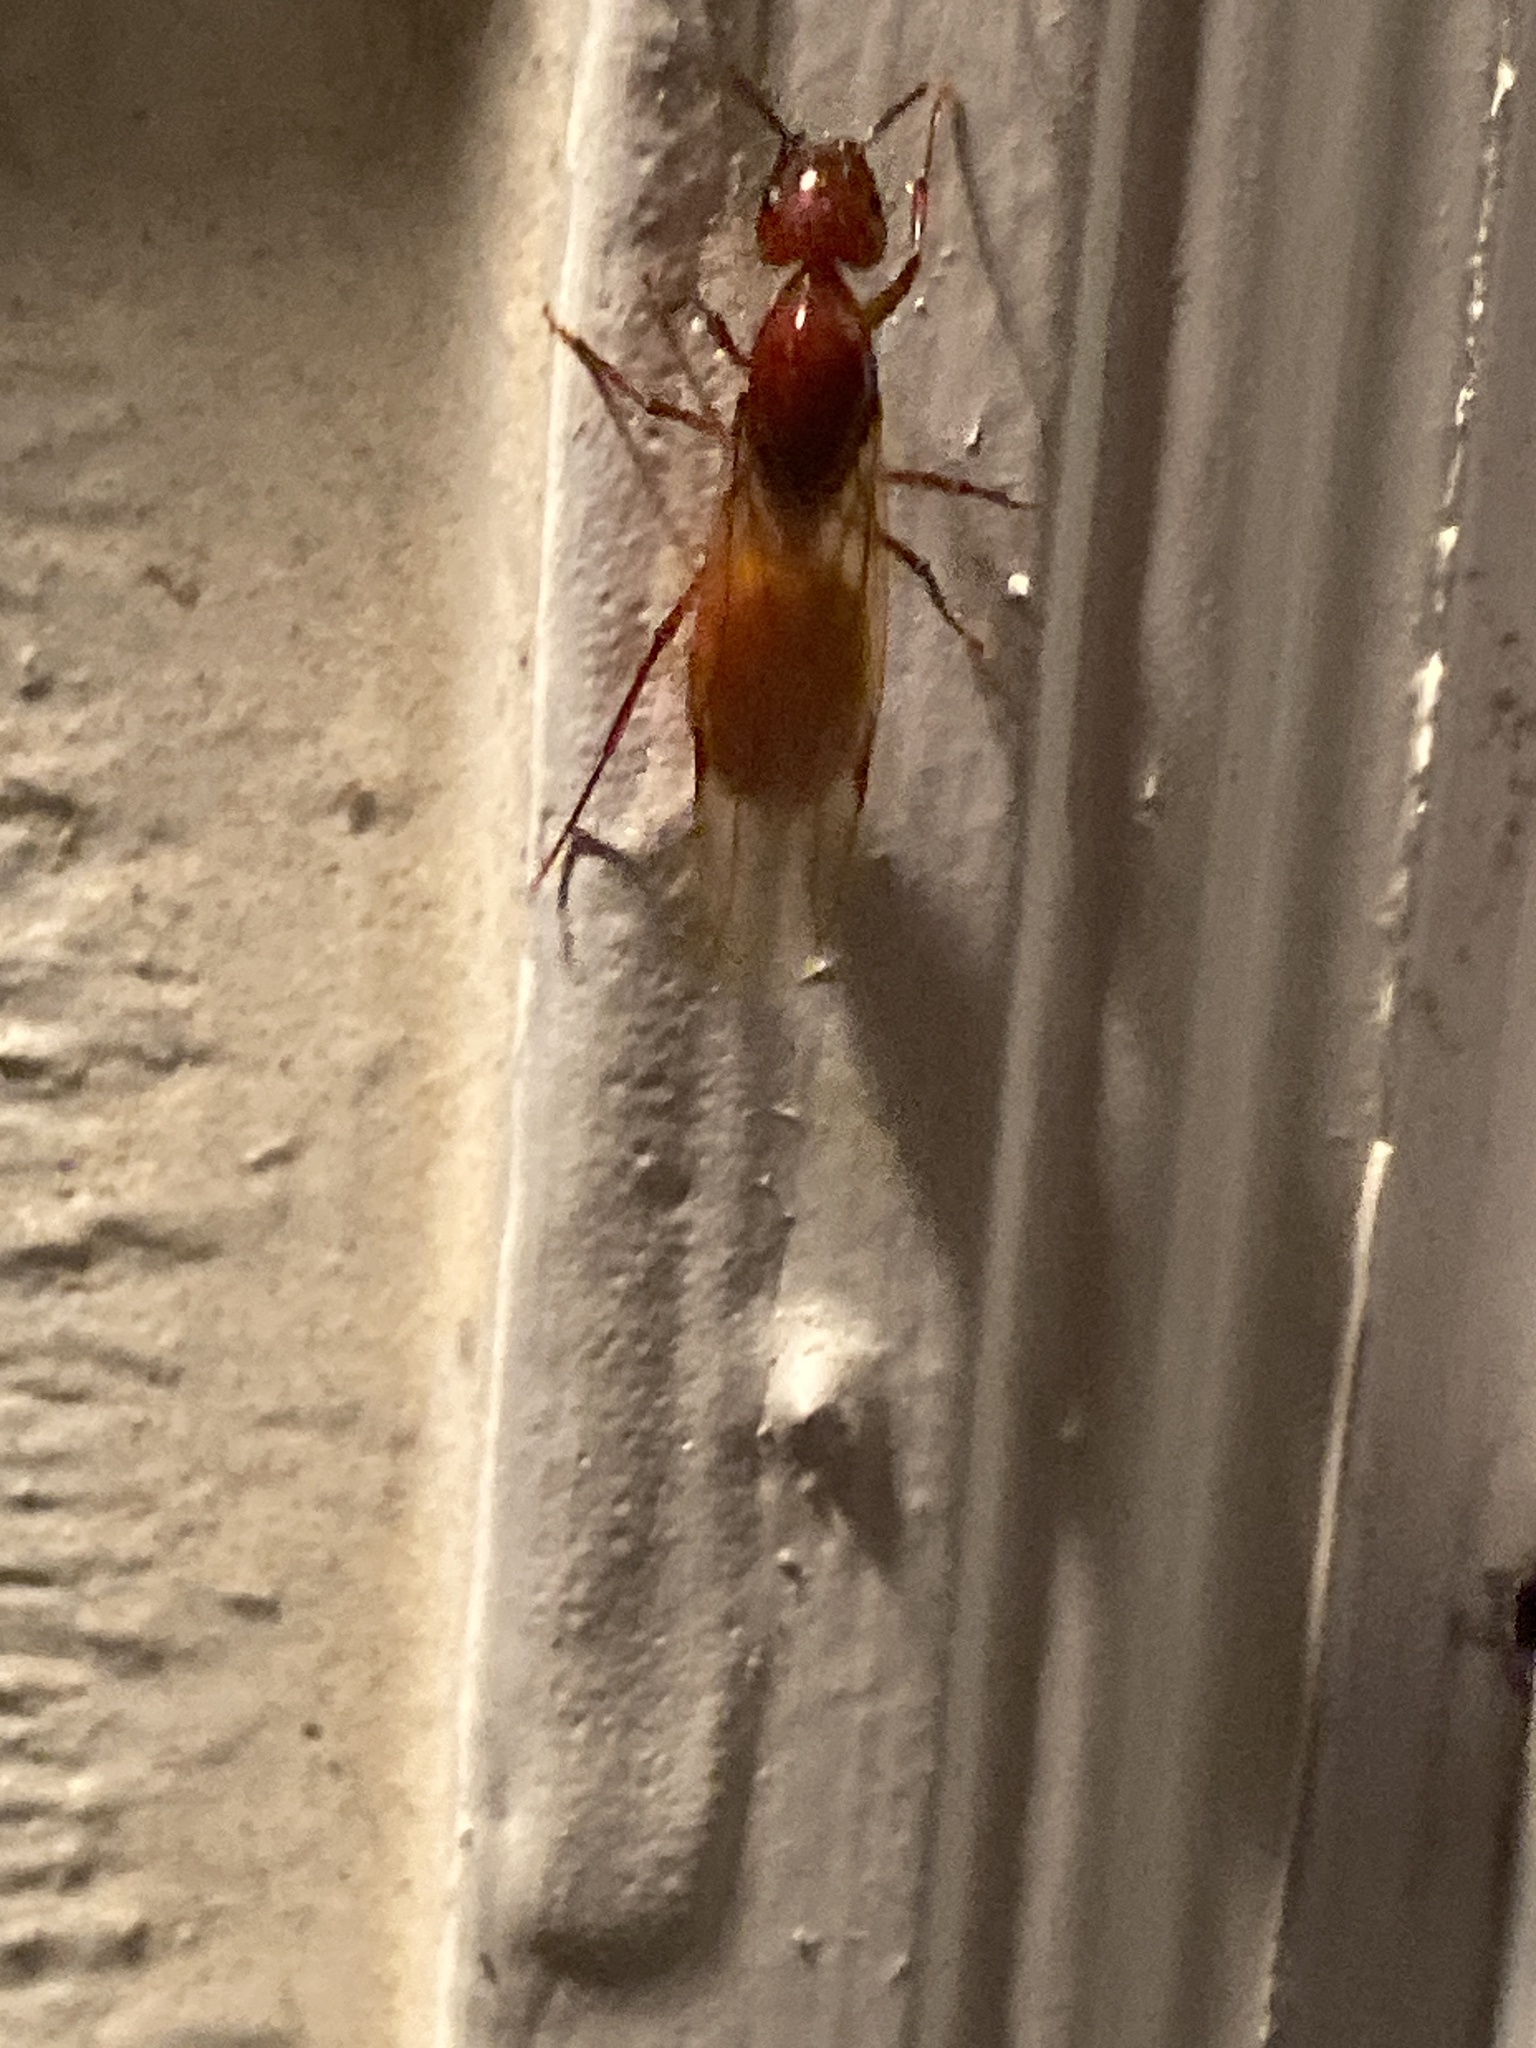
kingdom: Animalia
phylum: Arthropoda
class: Insecta
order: Hymenoptera
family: Formicidae
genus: Camponotus
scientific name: Camponotus castaneus
